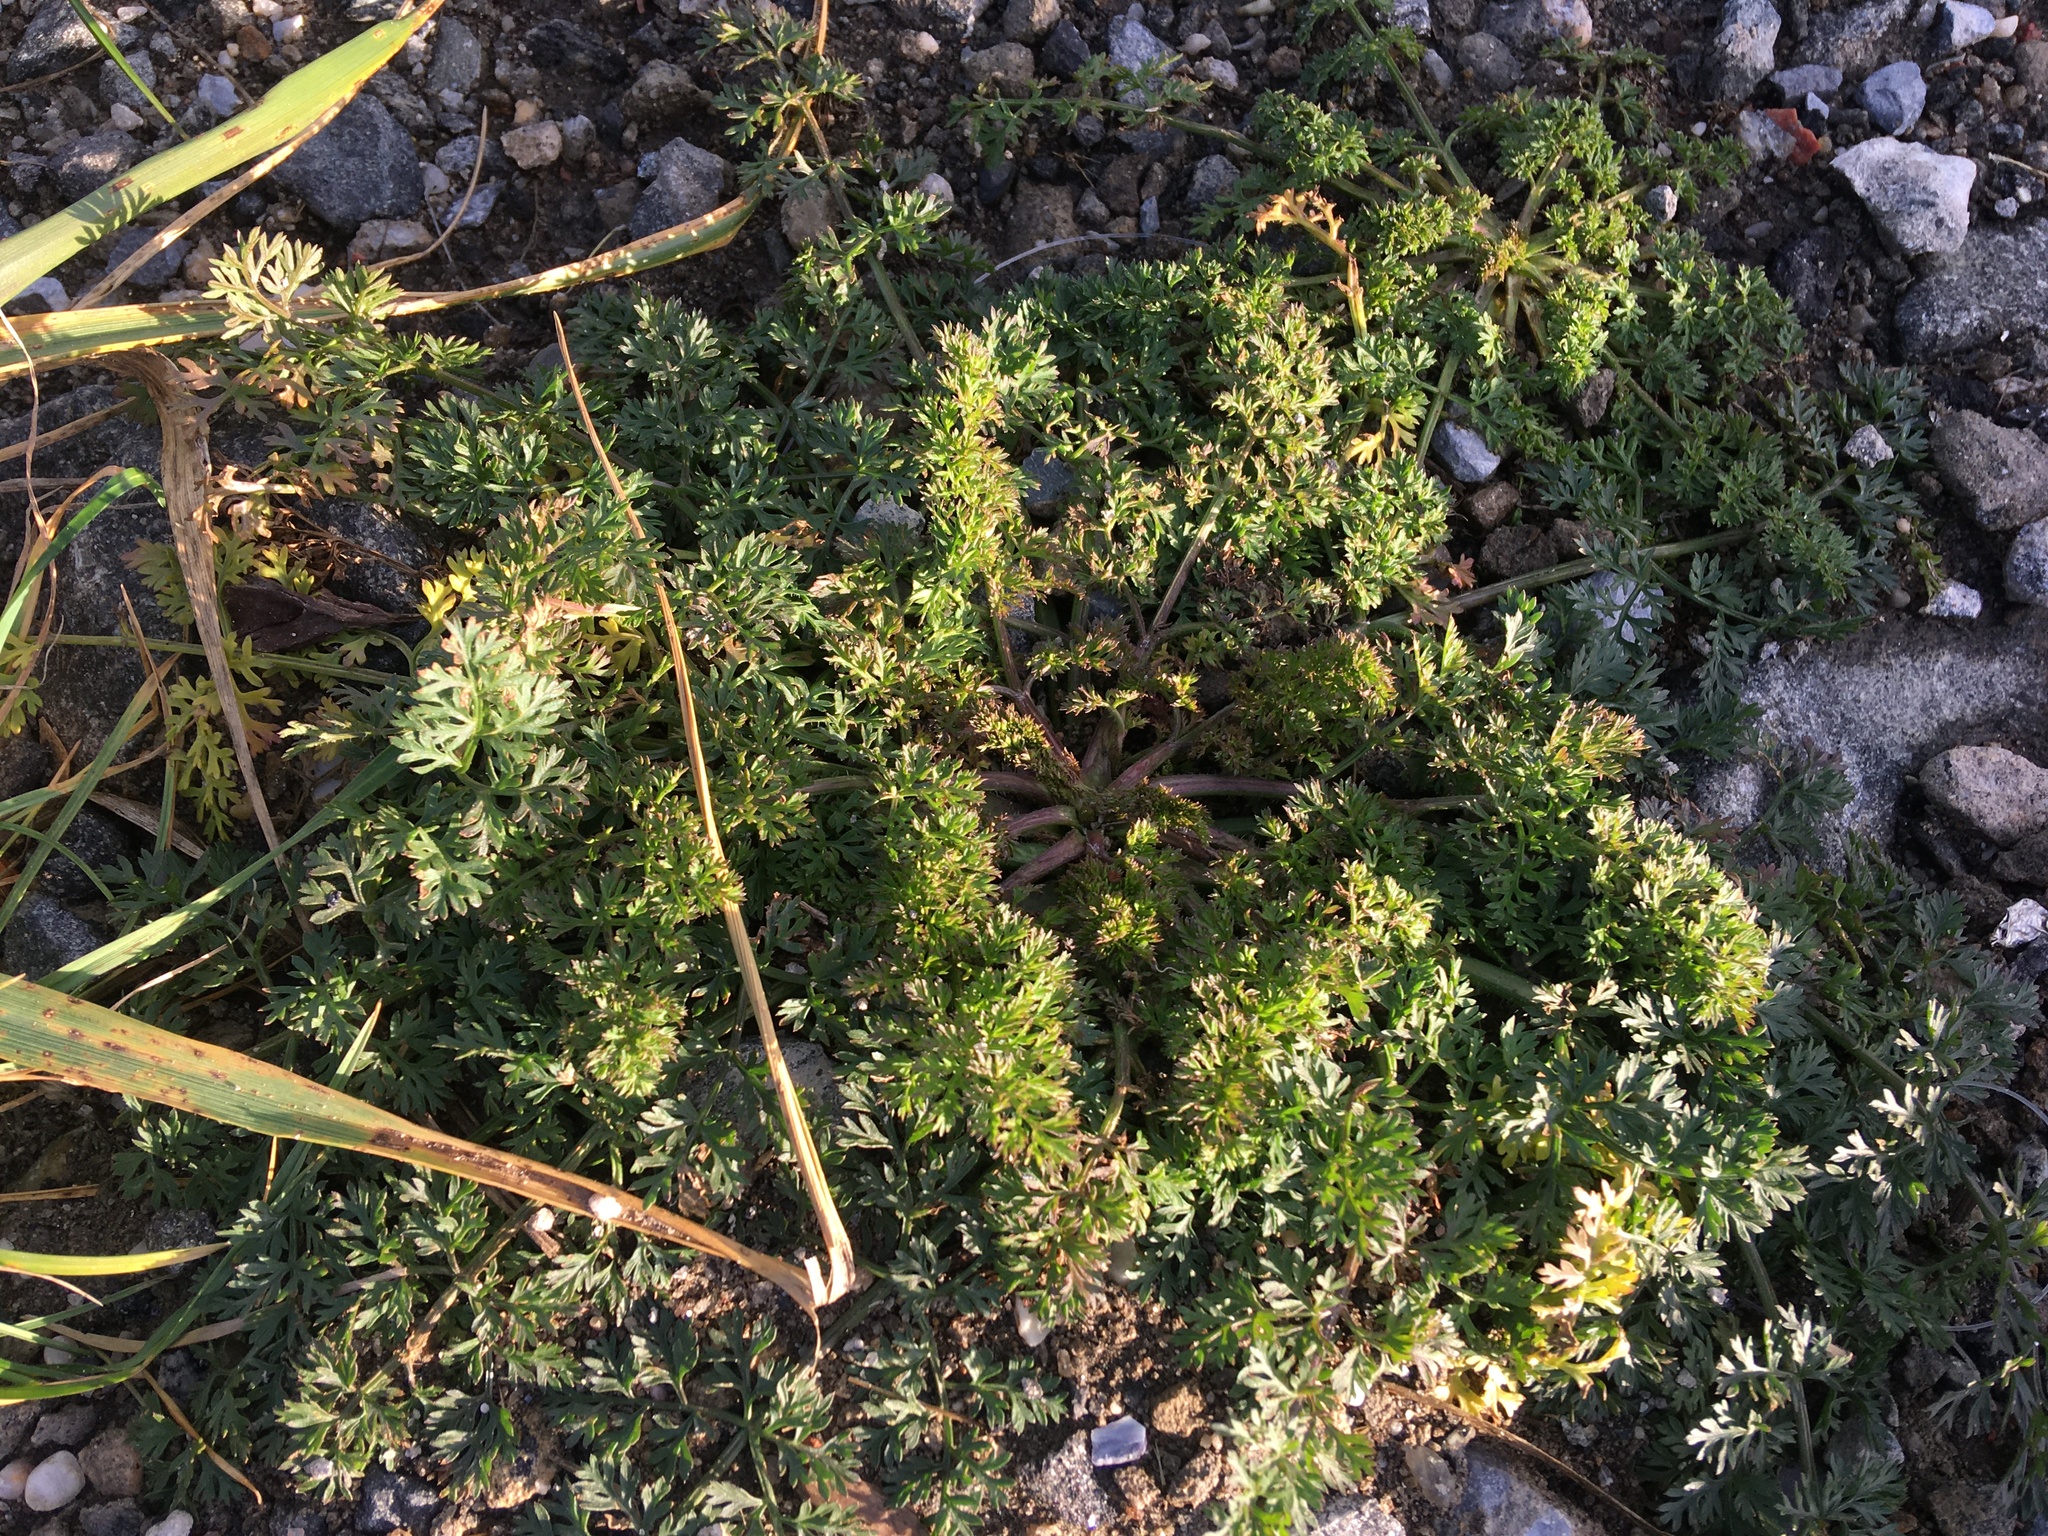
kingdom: Plantae
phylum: Tracheophyta
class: Magnoliopsida
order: Apiales
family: Apiaceae
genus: Daucus
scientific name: Daucus carota
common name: Wild carrot
